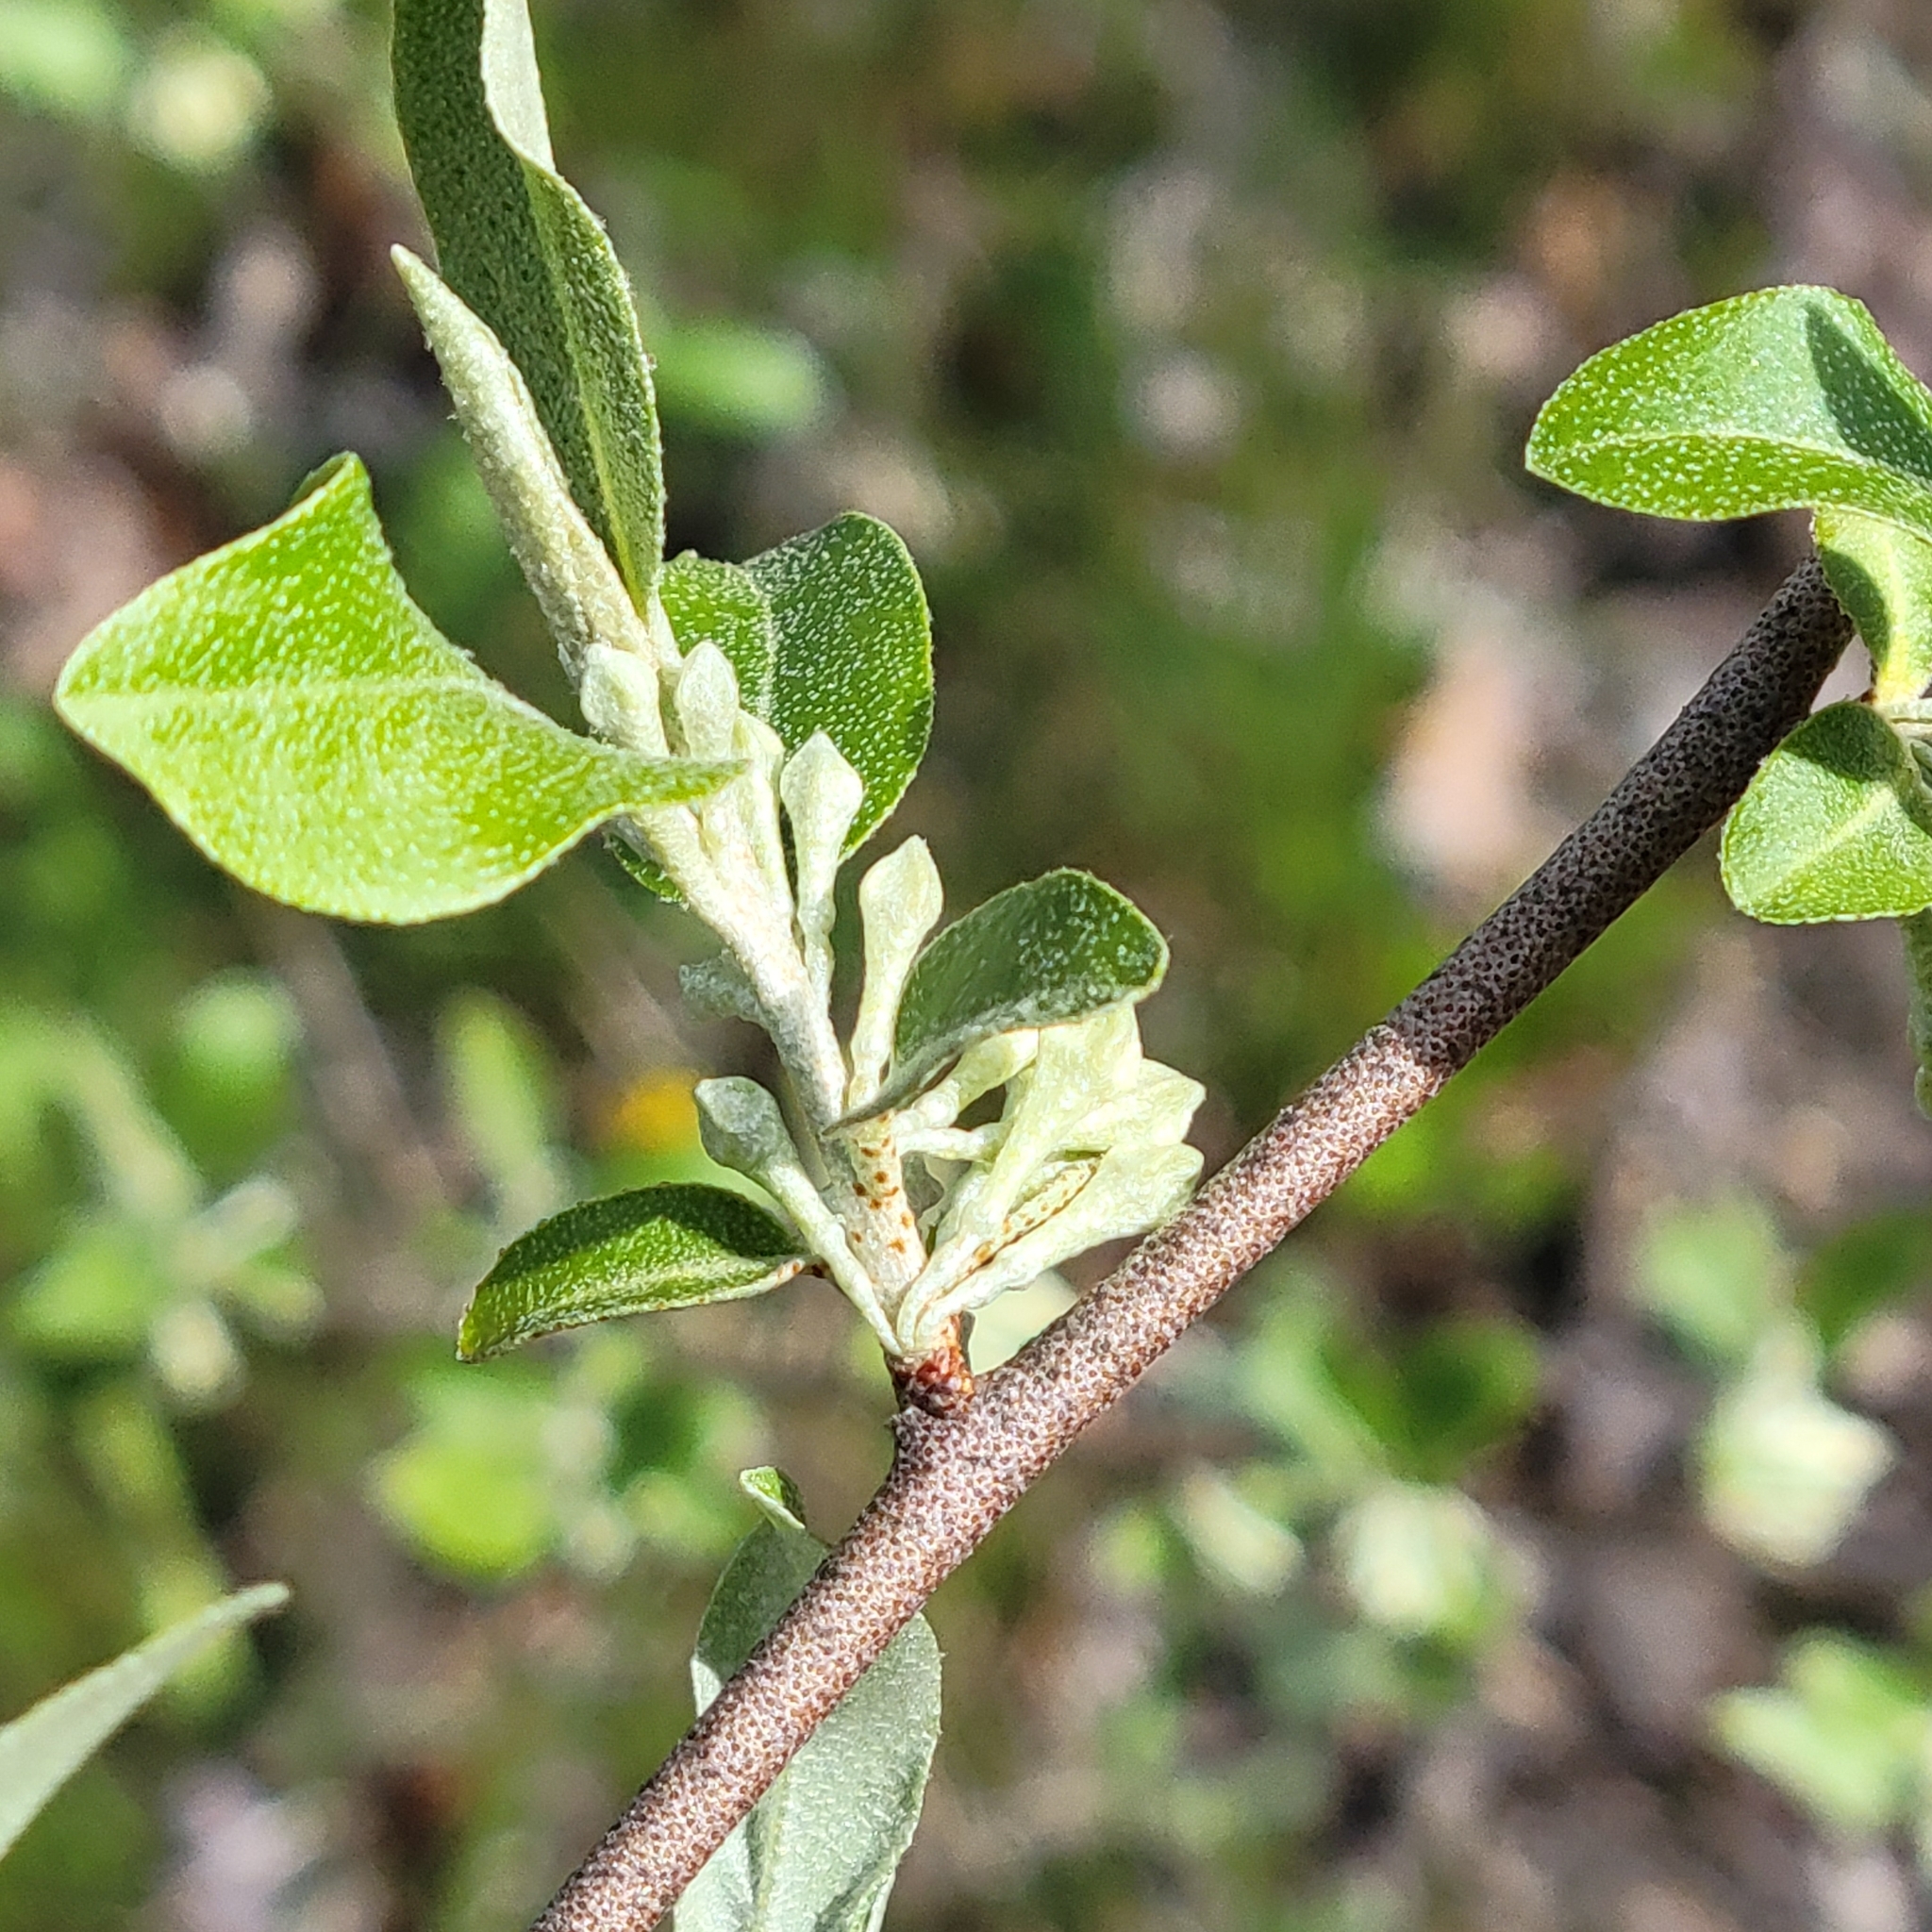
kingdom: Plantae
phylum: Tracheophyta
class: Magnoliopsida
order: Rosales
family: Elaeagnaceae
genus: Elaeagnus
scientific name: Elaeagnus umbellata
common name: Autumn olive
